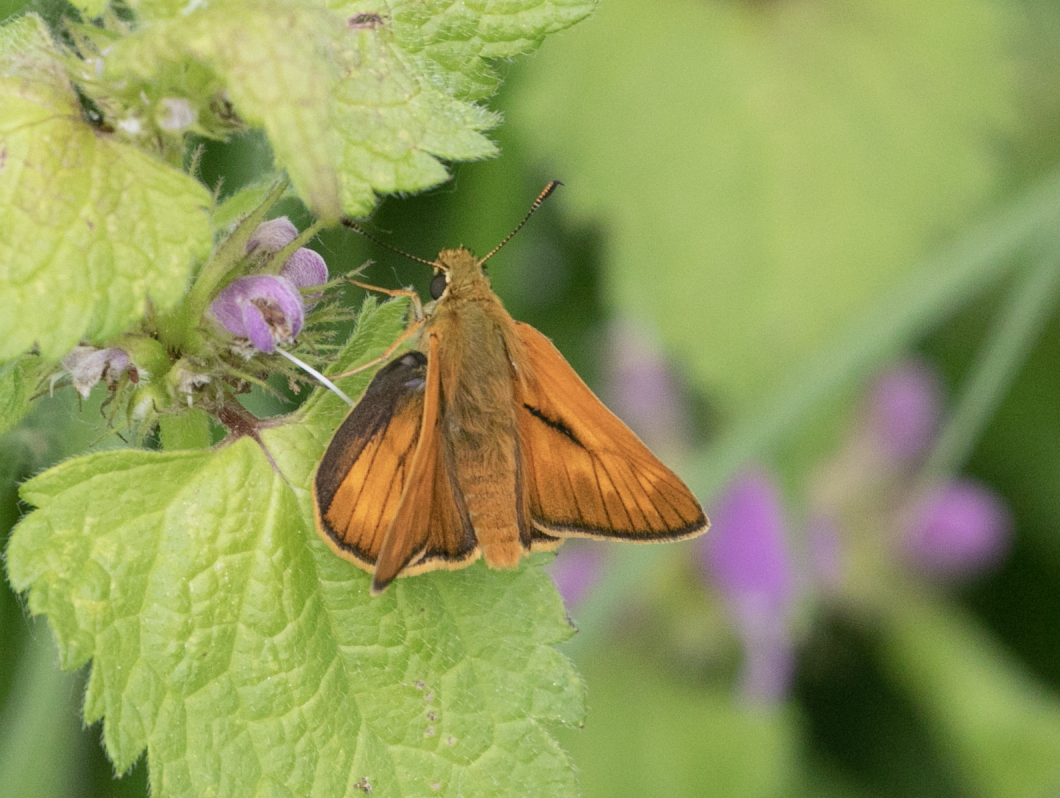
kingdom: Animalia
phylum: Arthropoda
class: Insecta
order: Lepidoptera
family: Hesperiidae
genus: Ochlodes
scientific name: Ochlodes venata
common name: Large skipper
